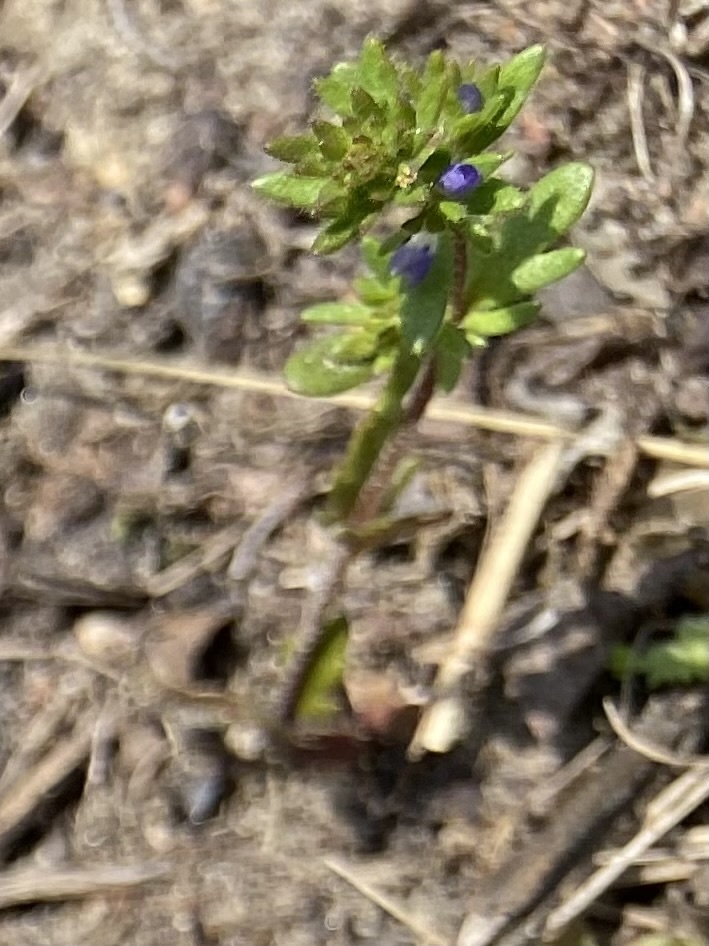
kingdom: Plantae
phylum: Tracheophyta
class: Magnoliopsida
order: Lamiales
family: Plantaginaceae
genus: Veronica
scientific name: Veronica verna
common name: Spring speedwell
